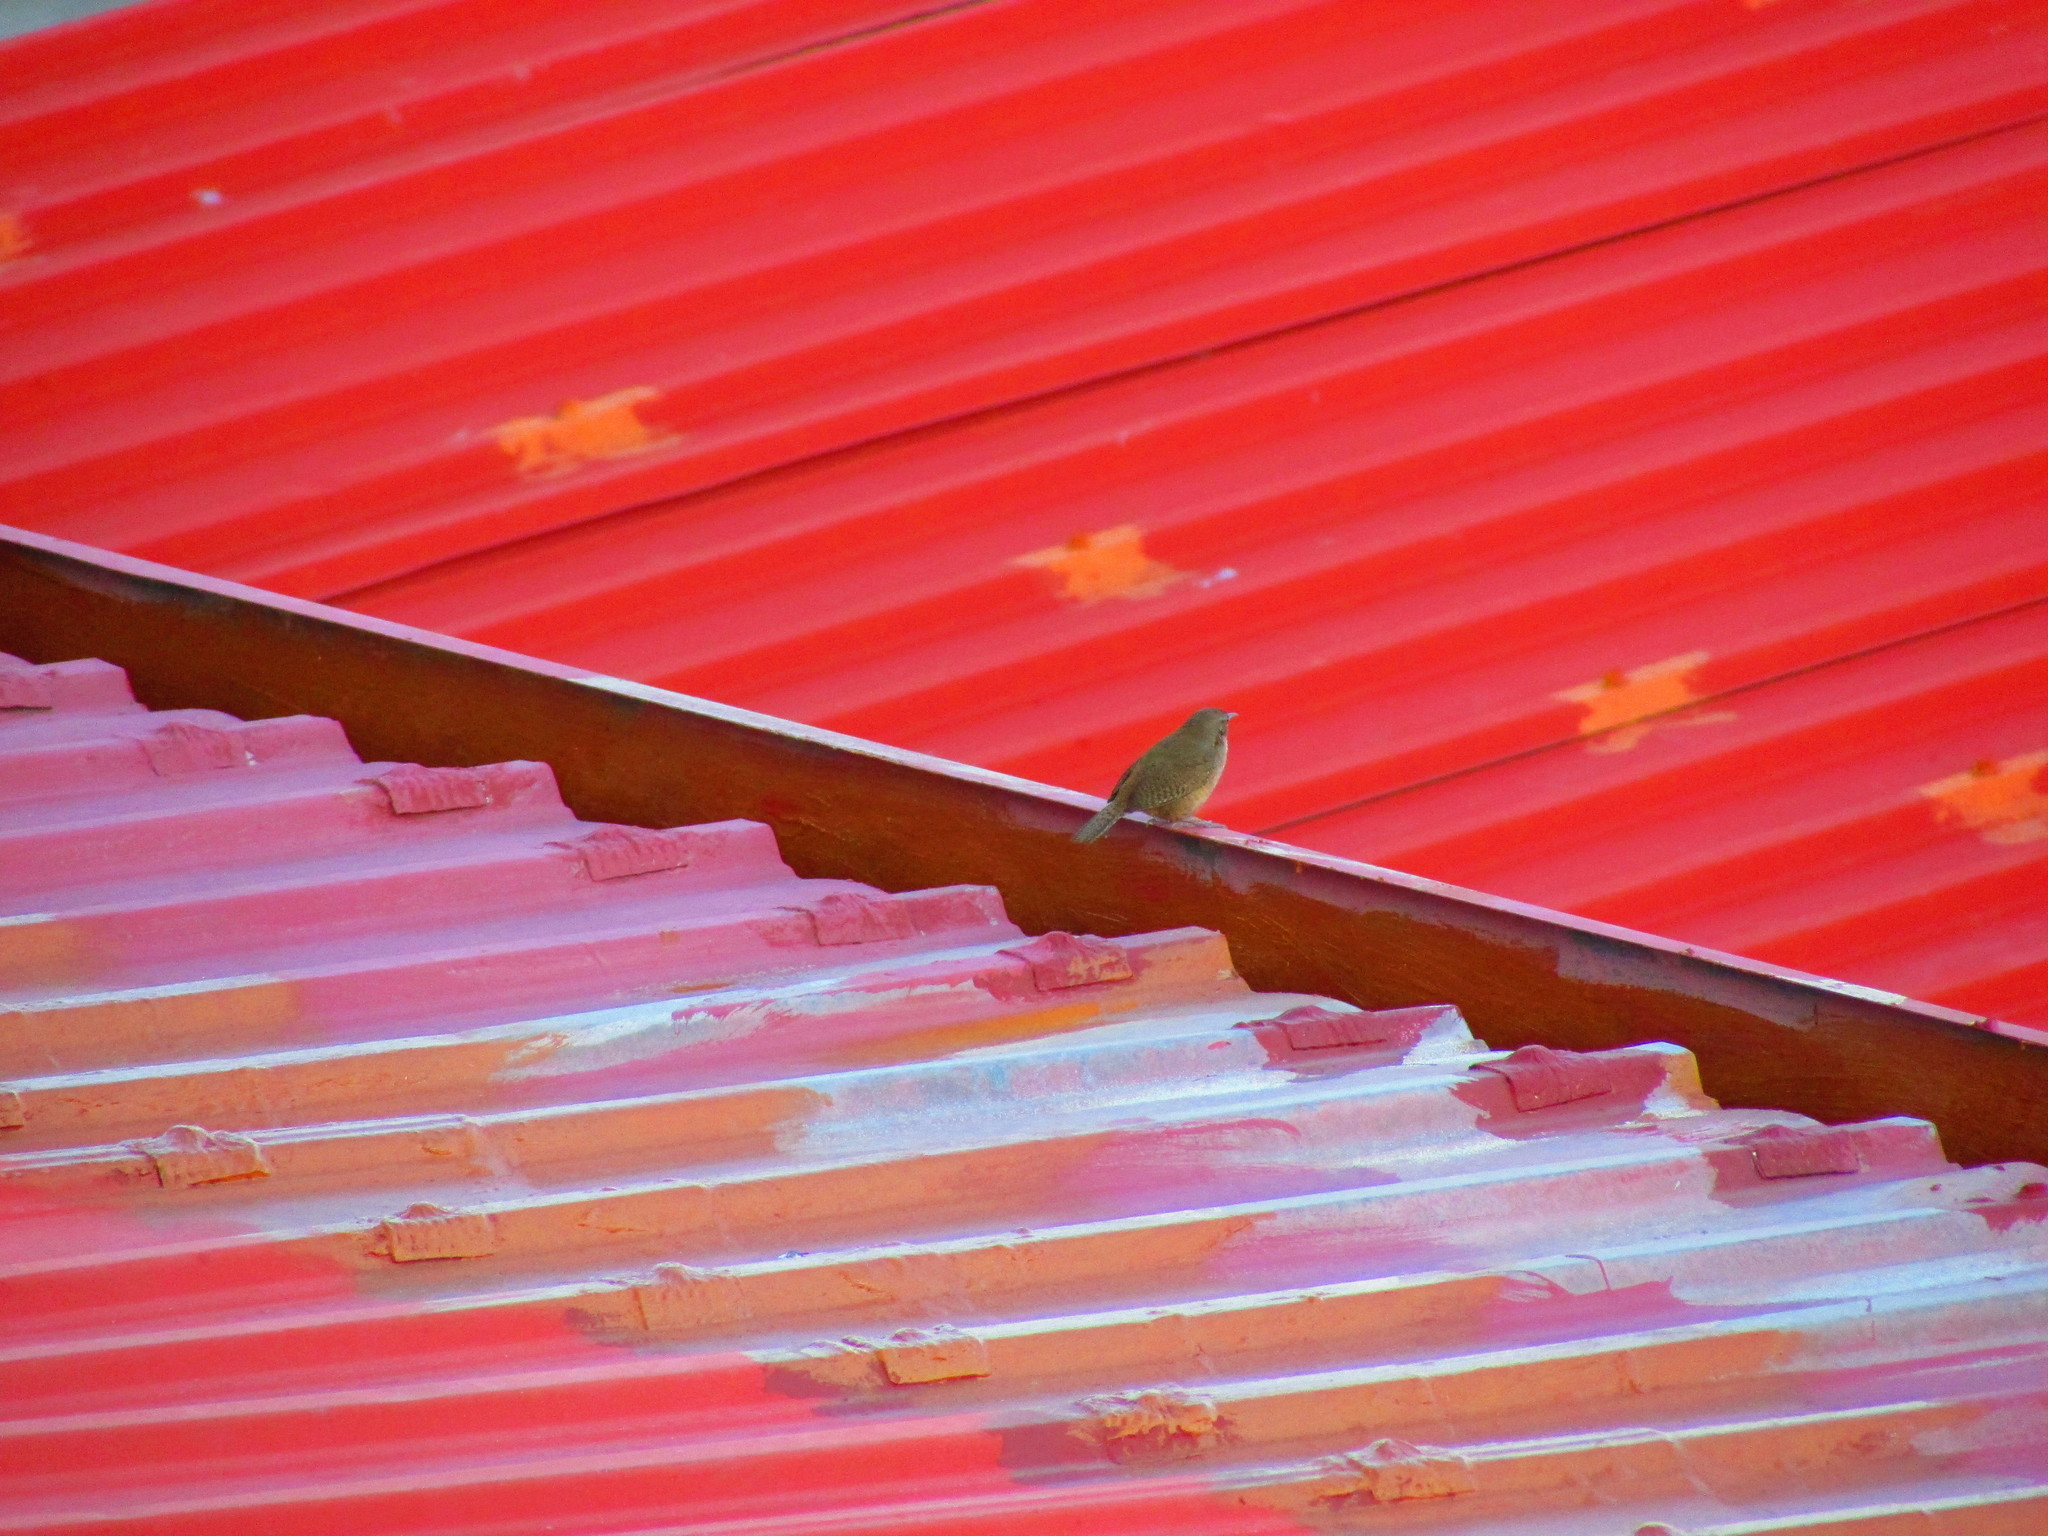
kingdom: Animalia
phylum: Chordata
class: Aves
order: Passeriformes
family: Troglodytidae
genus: Troglodytes
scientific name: Troglodytes aedon
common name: House wren
